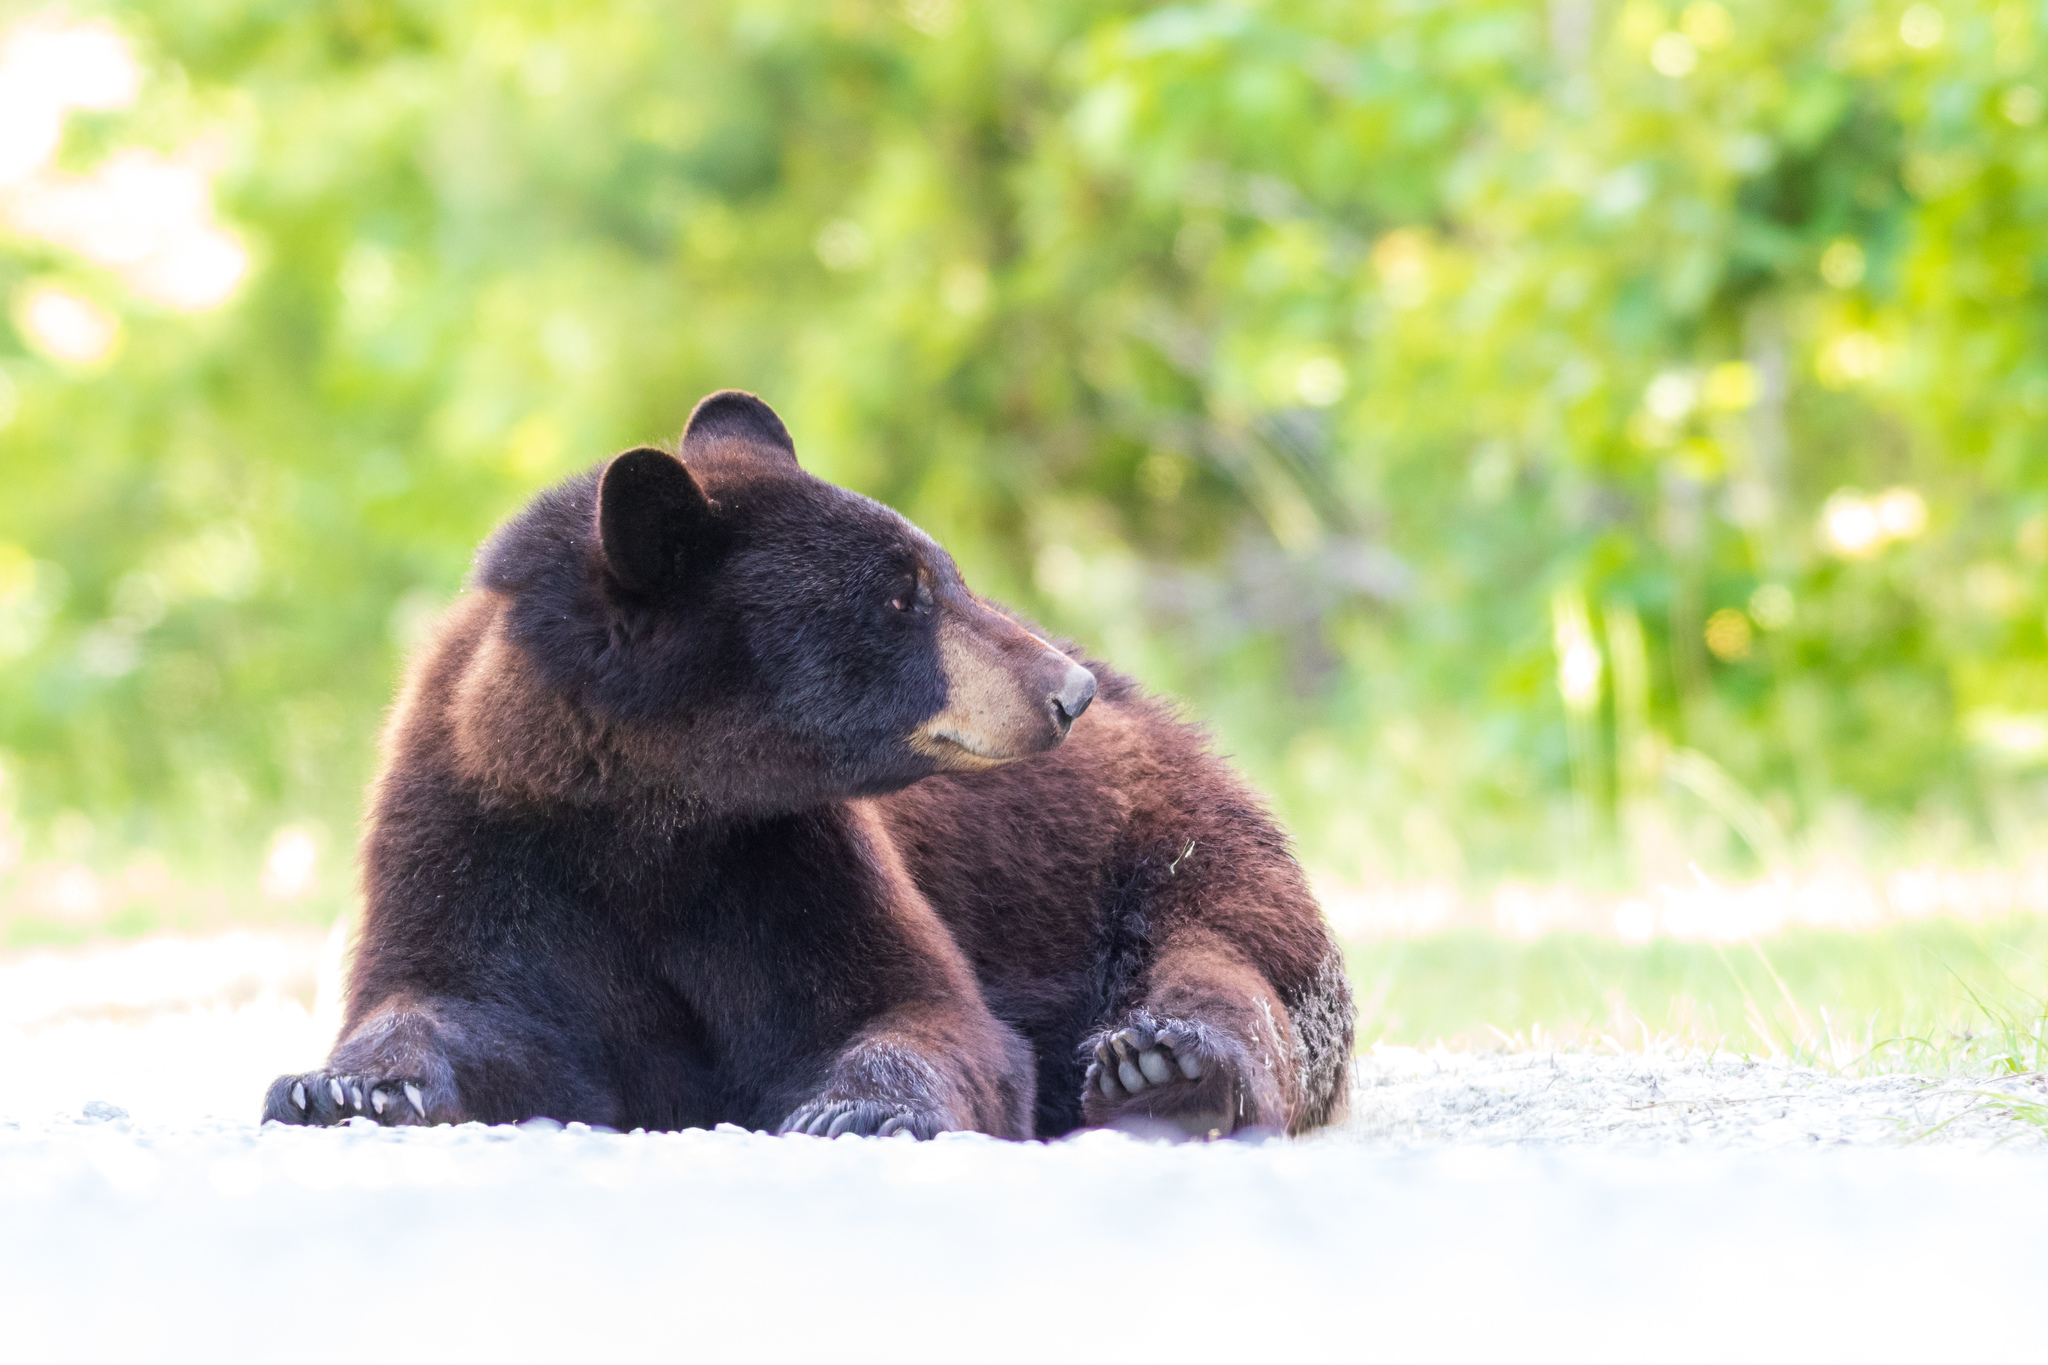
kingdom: Animalia
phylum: Chordata
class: Mammalia
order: Carnivora
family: Ursidae
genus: Ursus
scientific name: Ursus americanus
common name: American black bear
